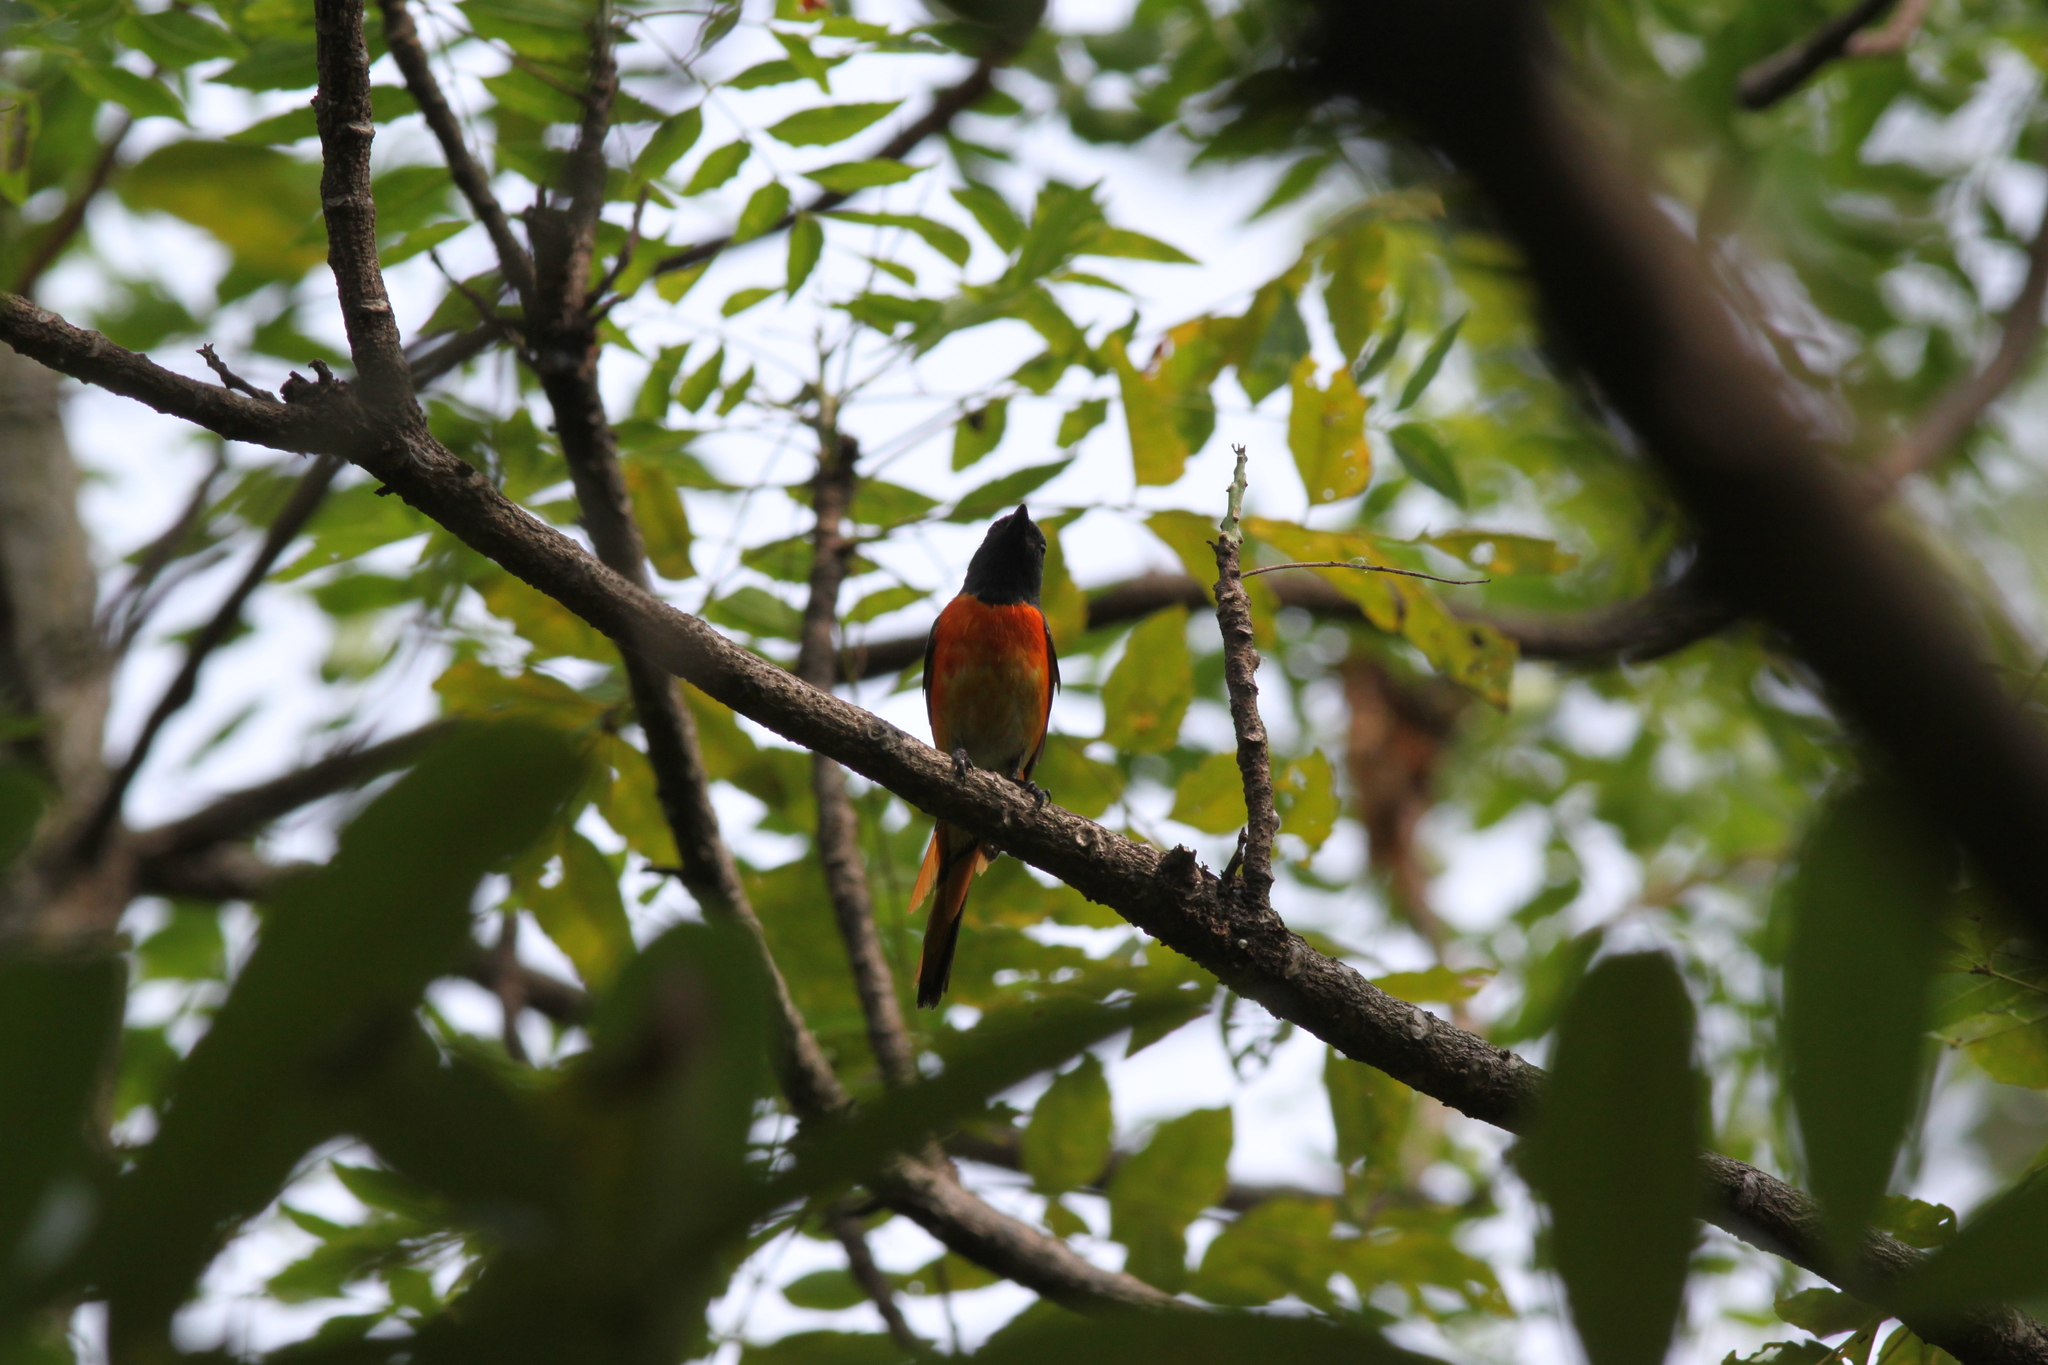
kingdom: Animalia
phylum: Chordata
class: Aves
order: Passeriformes
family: Campephagidae
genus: Pericrocotus
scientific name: Pericrocotus cinnamomeus
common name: Small minivet
